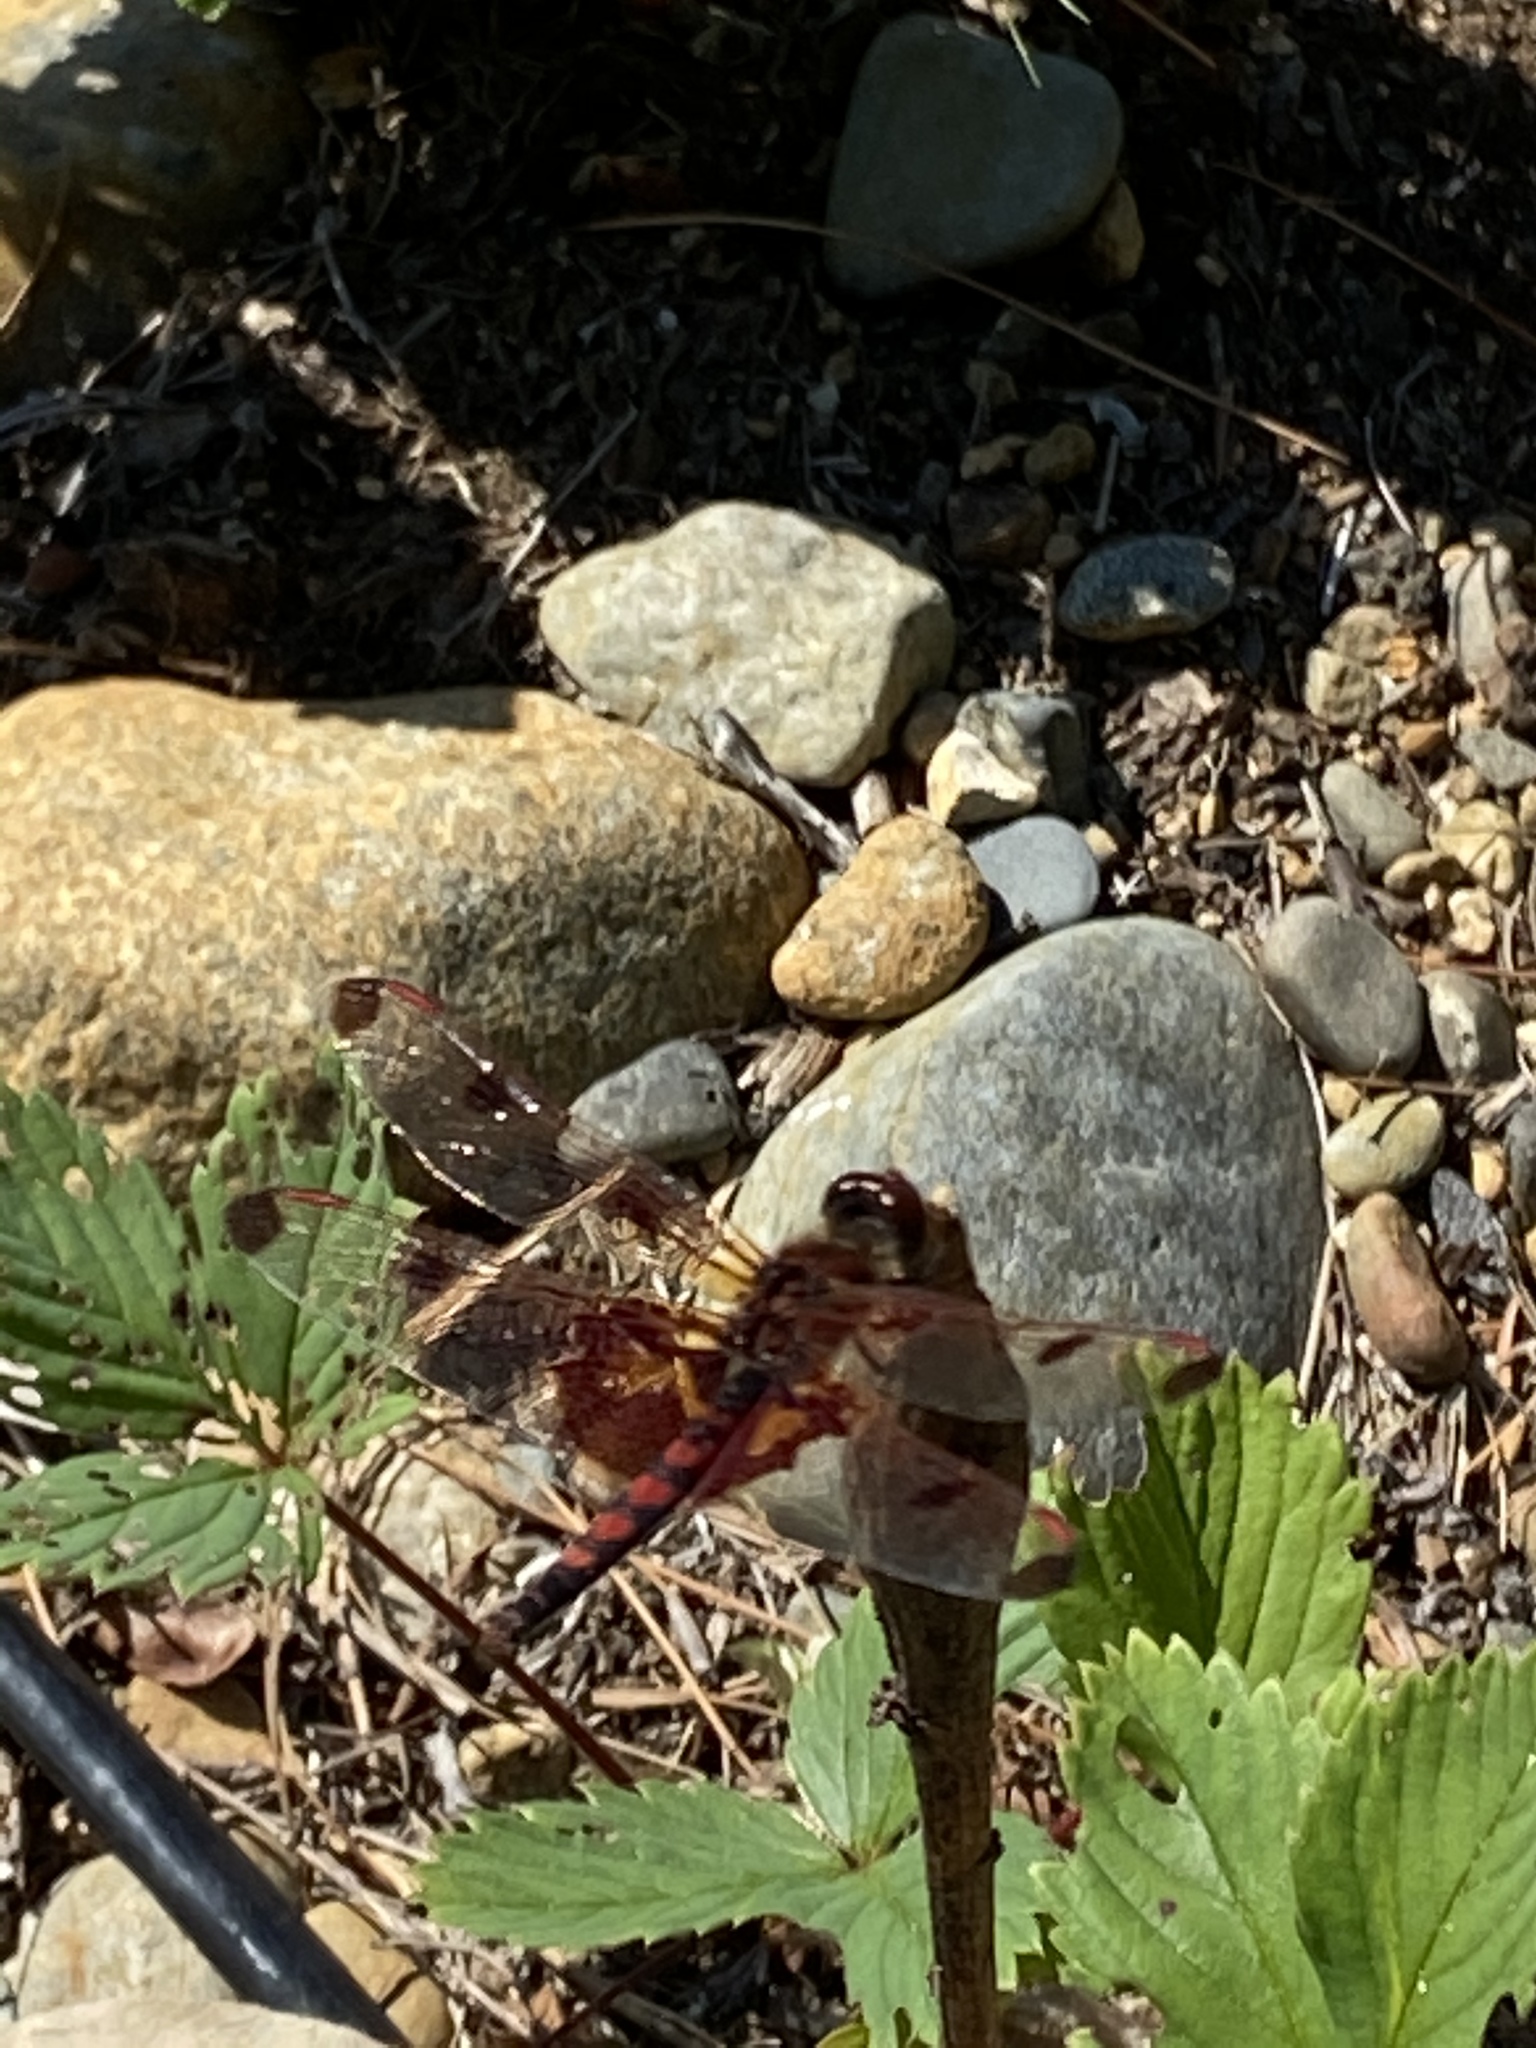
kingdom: Animalia
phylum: Arthropoda
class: Insecta
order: Odonata
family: Libellulidae
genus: Celithemis
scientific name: Celithemis elisa
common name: Calico pennant
